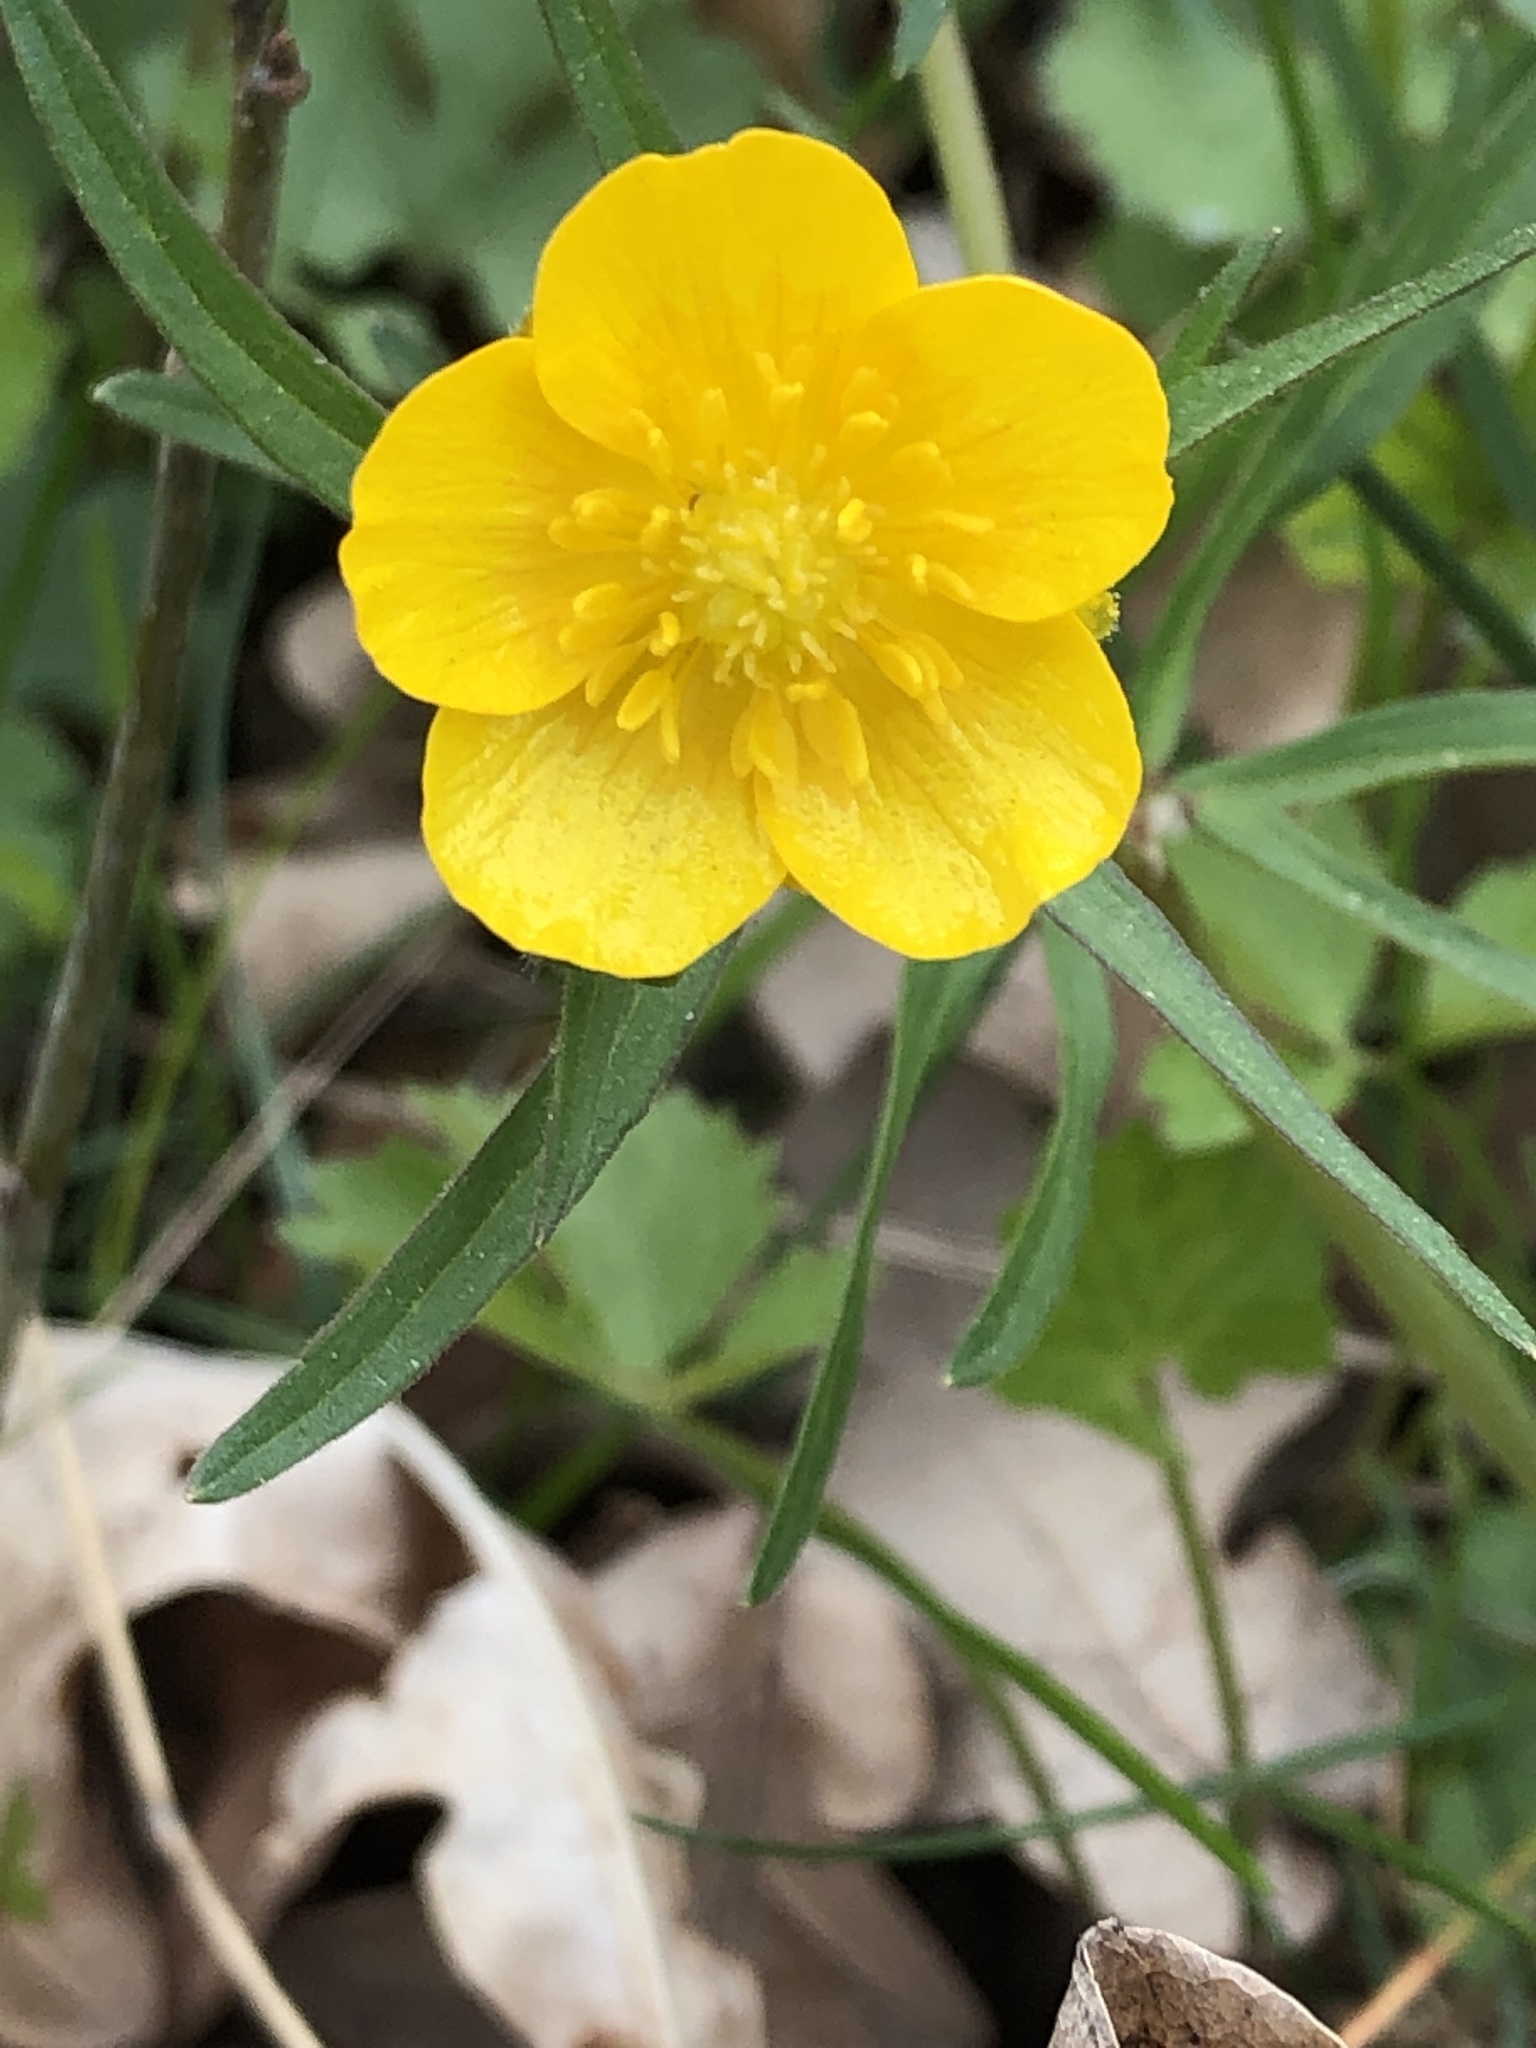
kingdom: Plantae
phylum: Tracheophyta
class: Magnoliopsida
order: Ranunculales
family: Ranunculaceae
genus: Ranunculus
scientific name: Ranunculus auricomus
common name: Goldilocks buttercup
